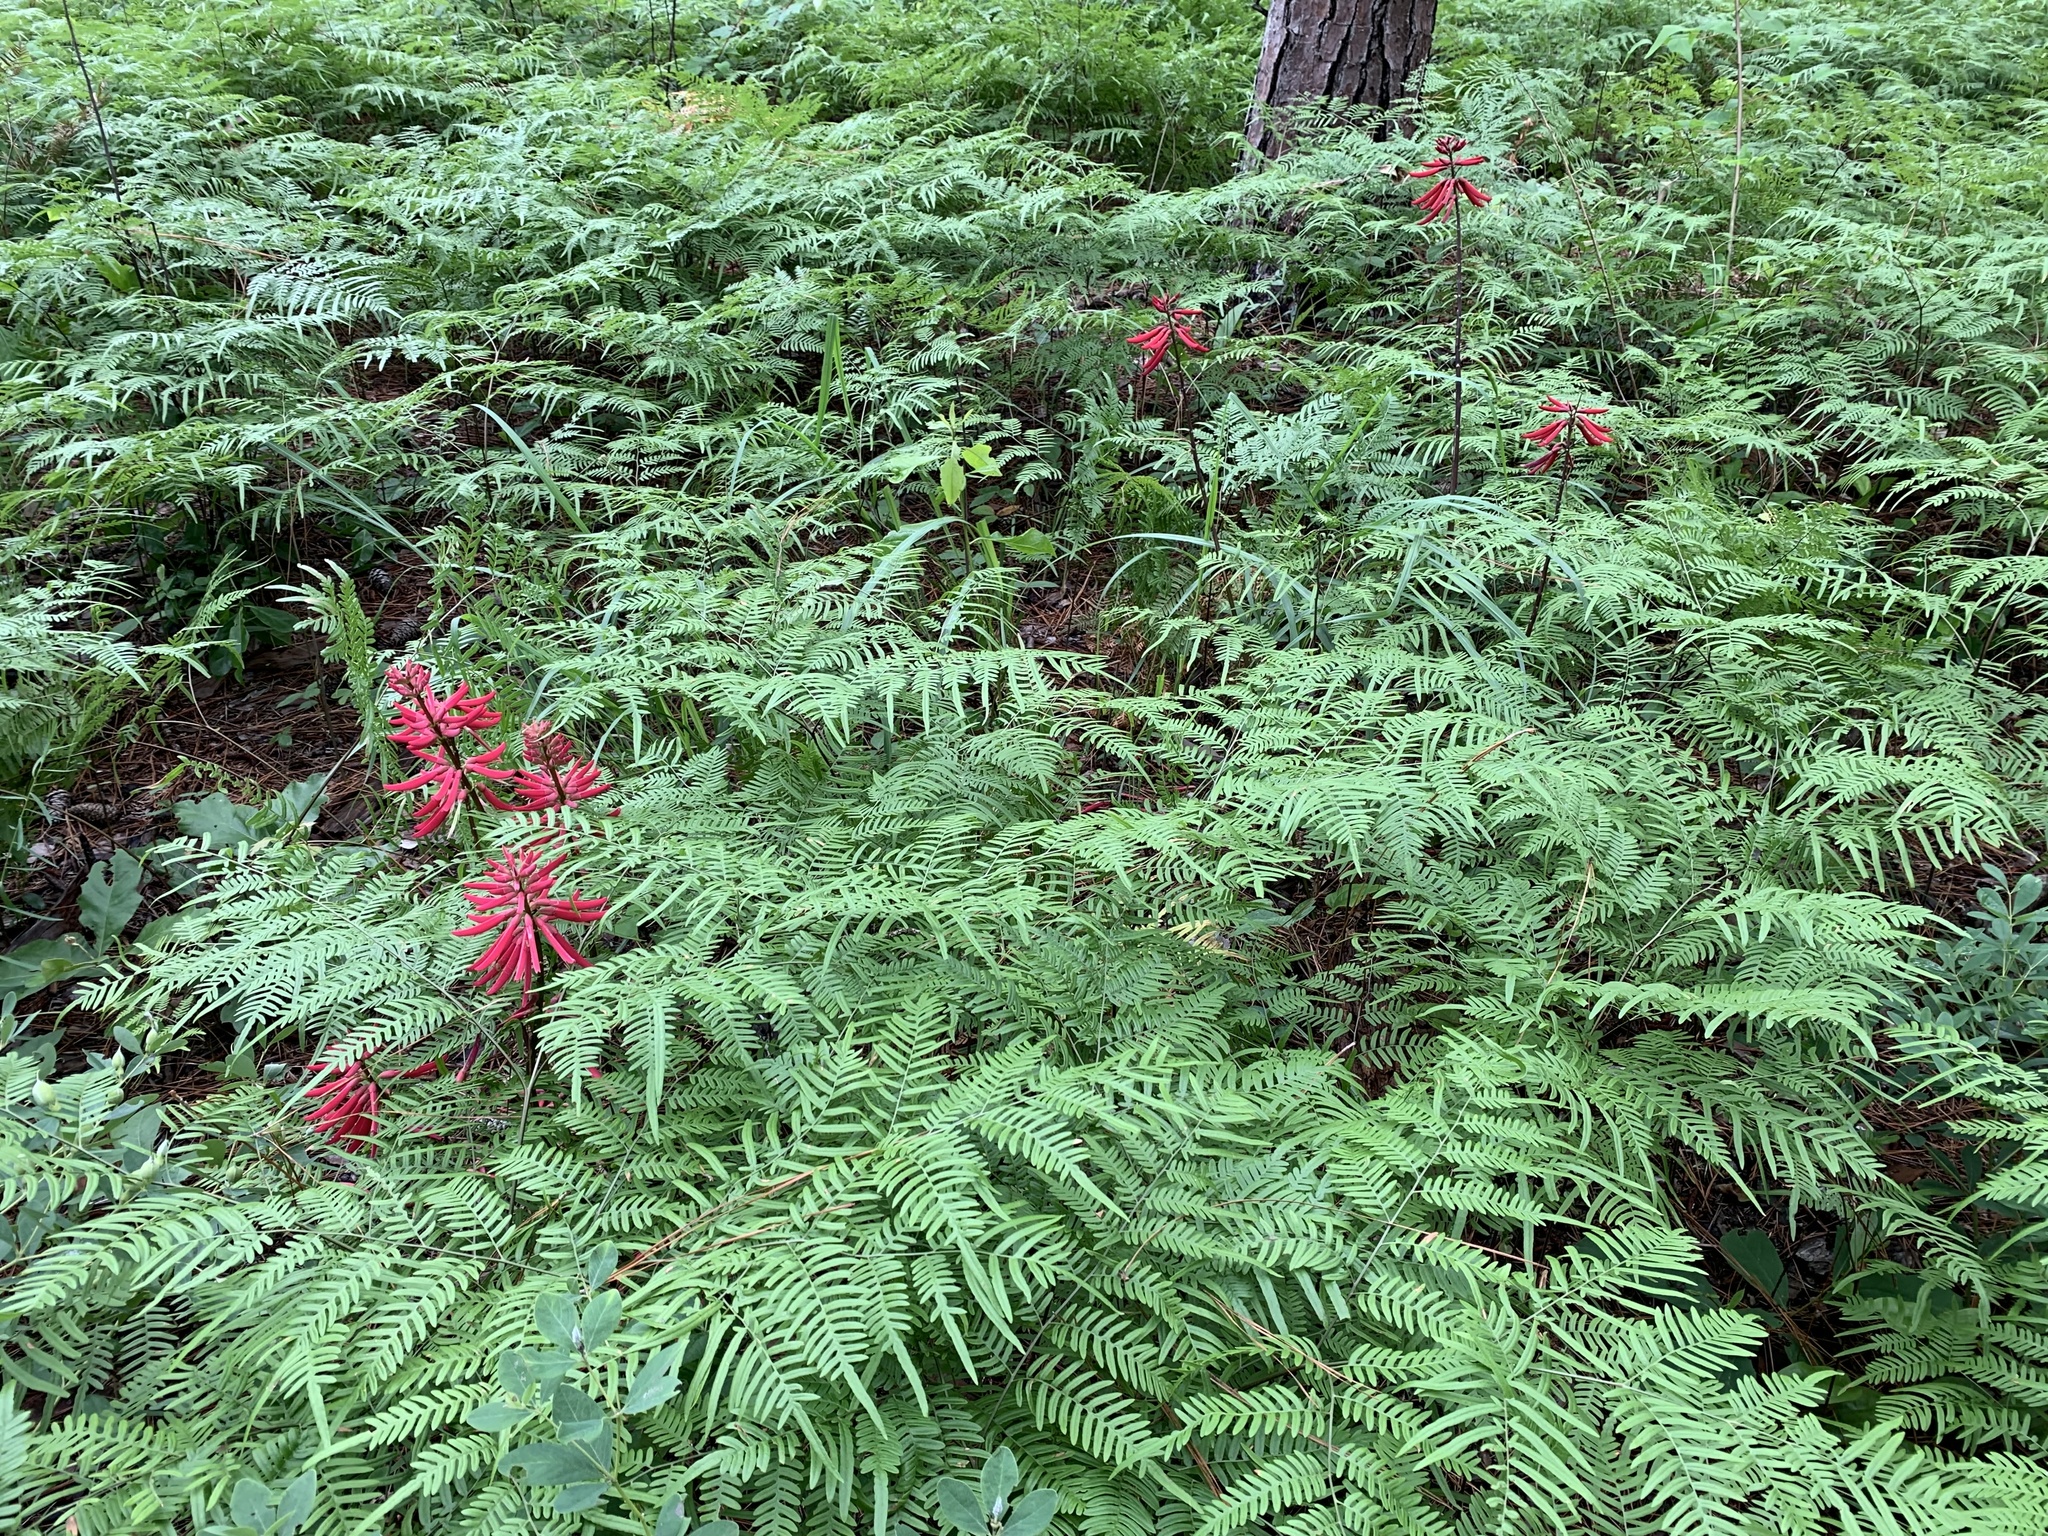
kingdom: Plantae
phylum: Tracheophyta
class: Magnoliopsida
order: Fabales
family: Fabaceae
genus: Erythrina
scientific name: Erythrina herbacea
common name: Coral-bean
